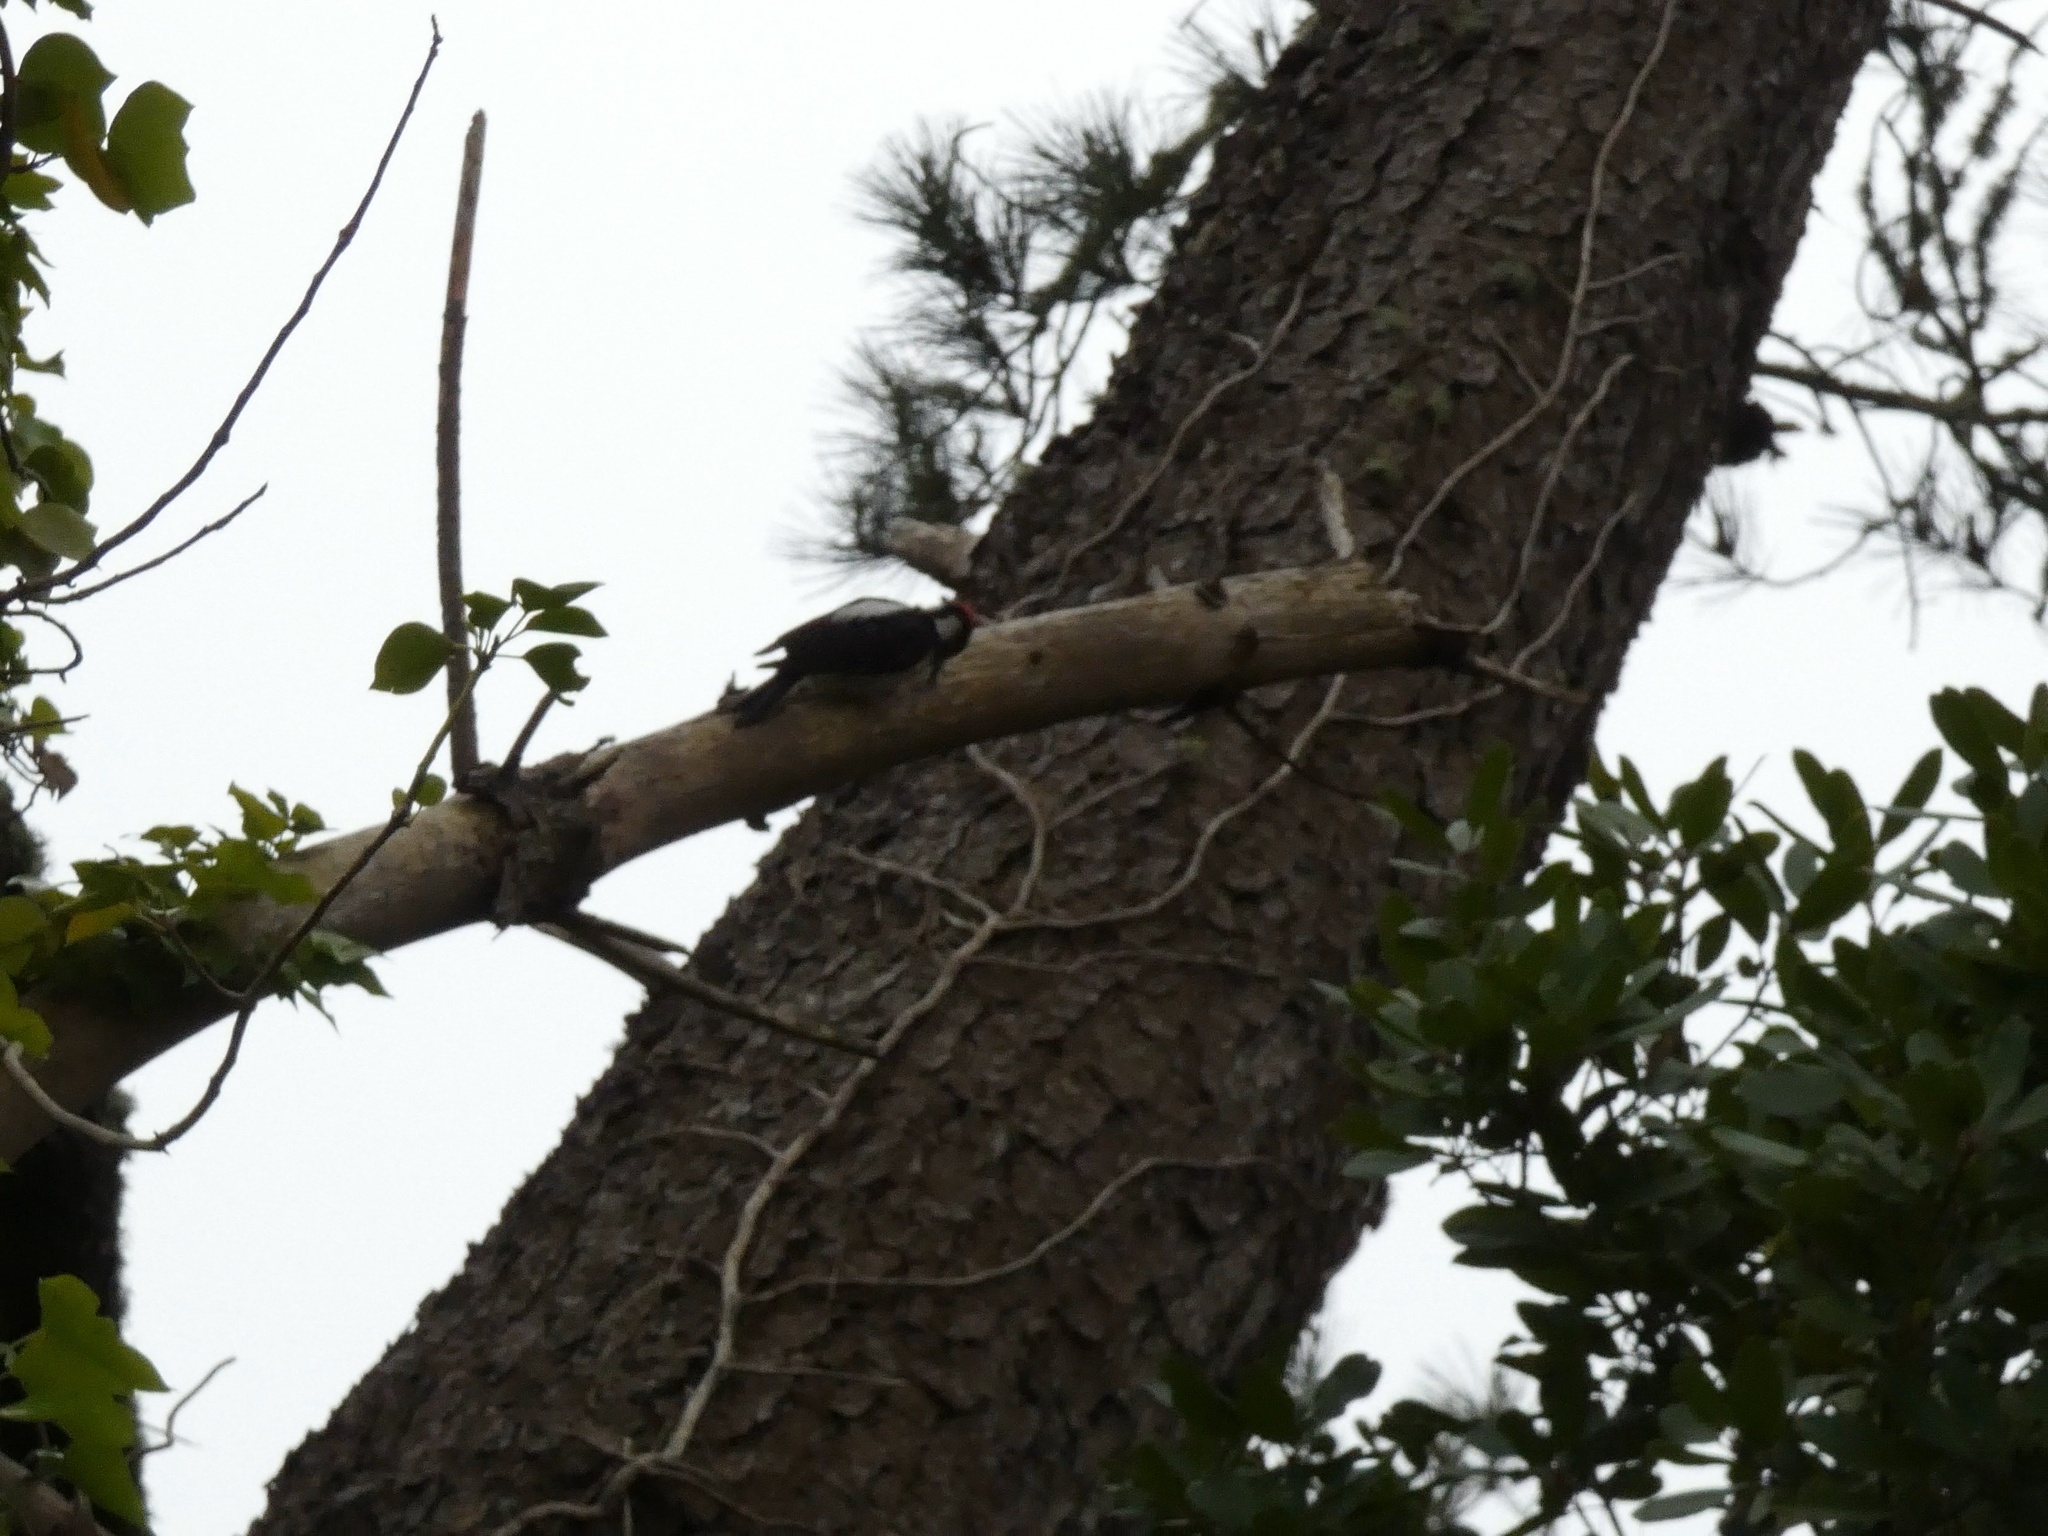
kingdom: Animalia
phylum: Chordata
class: Aves
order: Piciformes
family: Picidae
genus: Leuconotopicus
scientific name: Leuconotopicus villosus
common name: Hairy woodpecker
